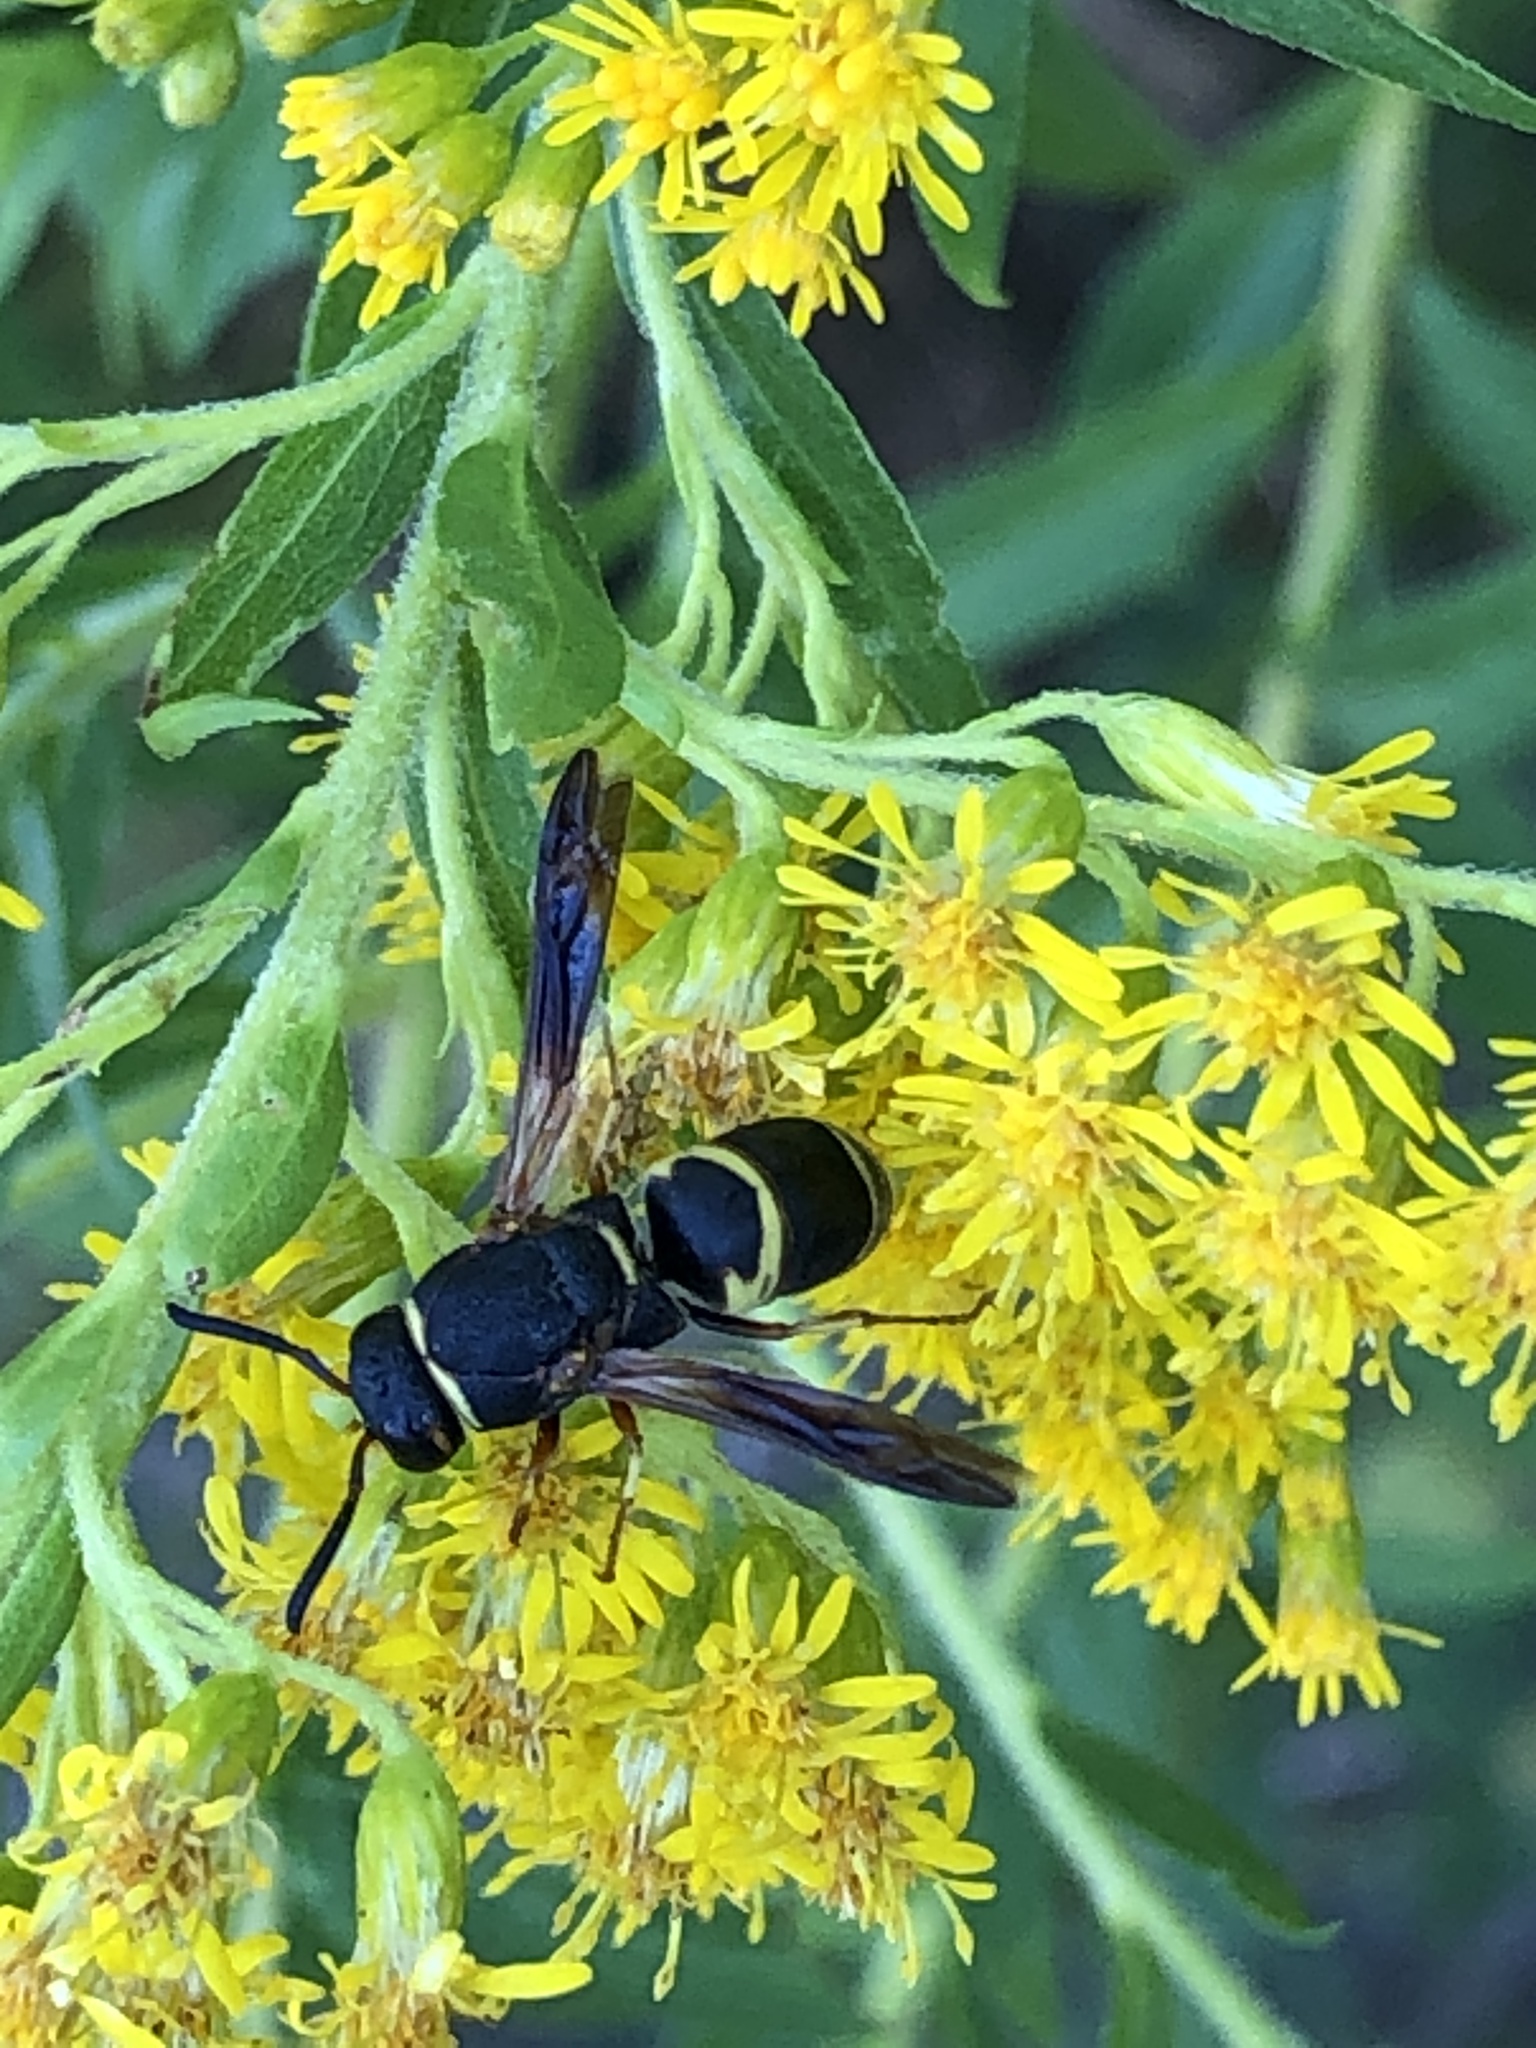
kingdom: Animalia
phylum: Arthropoda
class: Insecta
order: Hymenoptera
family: Eumenidae
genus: Euodynerus
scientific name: Euodynerus hidalgo
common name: Wasp
